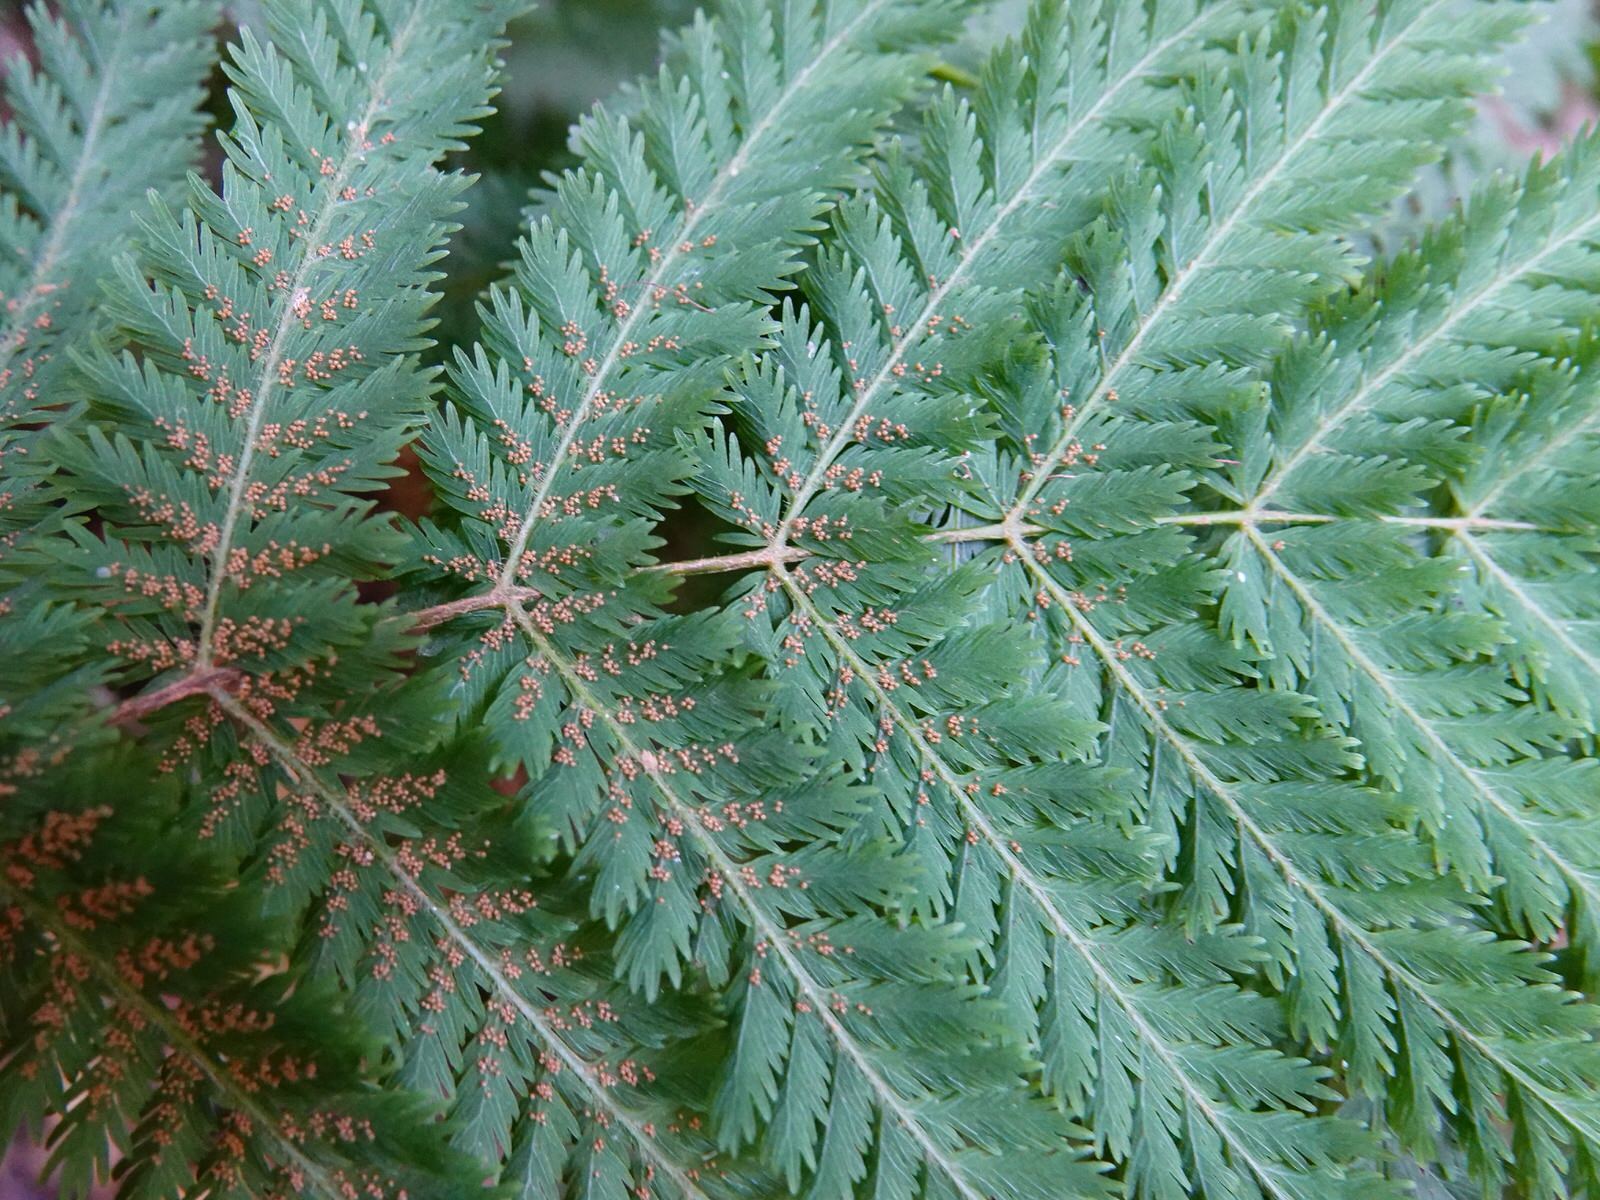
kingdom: Plantae
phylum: Tracheophyta
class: Polypodiopsida
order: Osmundales
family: Osmundaceae
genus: Leptopteris
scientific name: Leptopteris hymenophylloides
